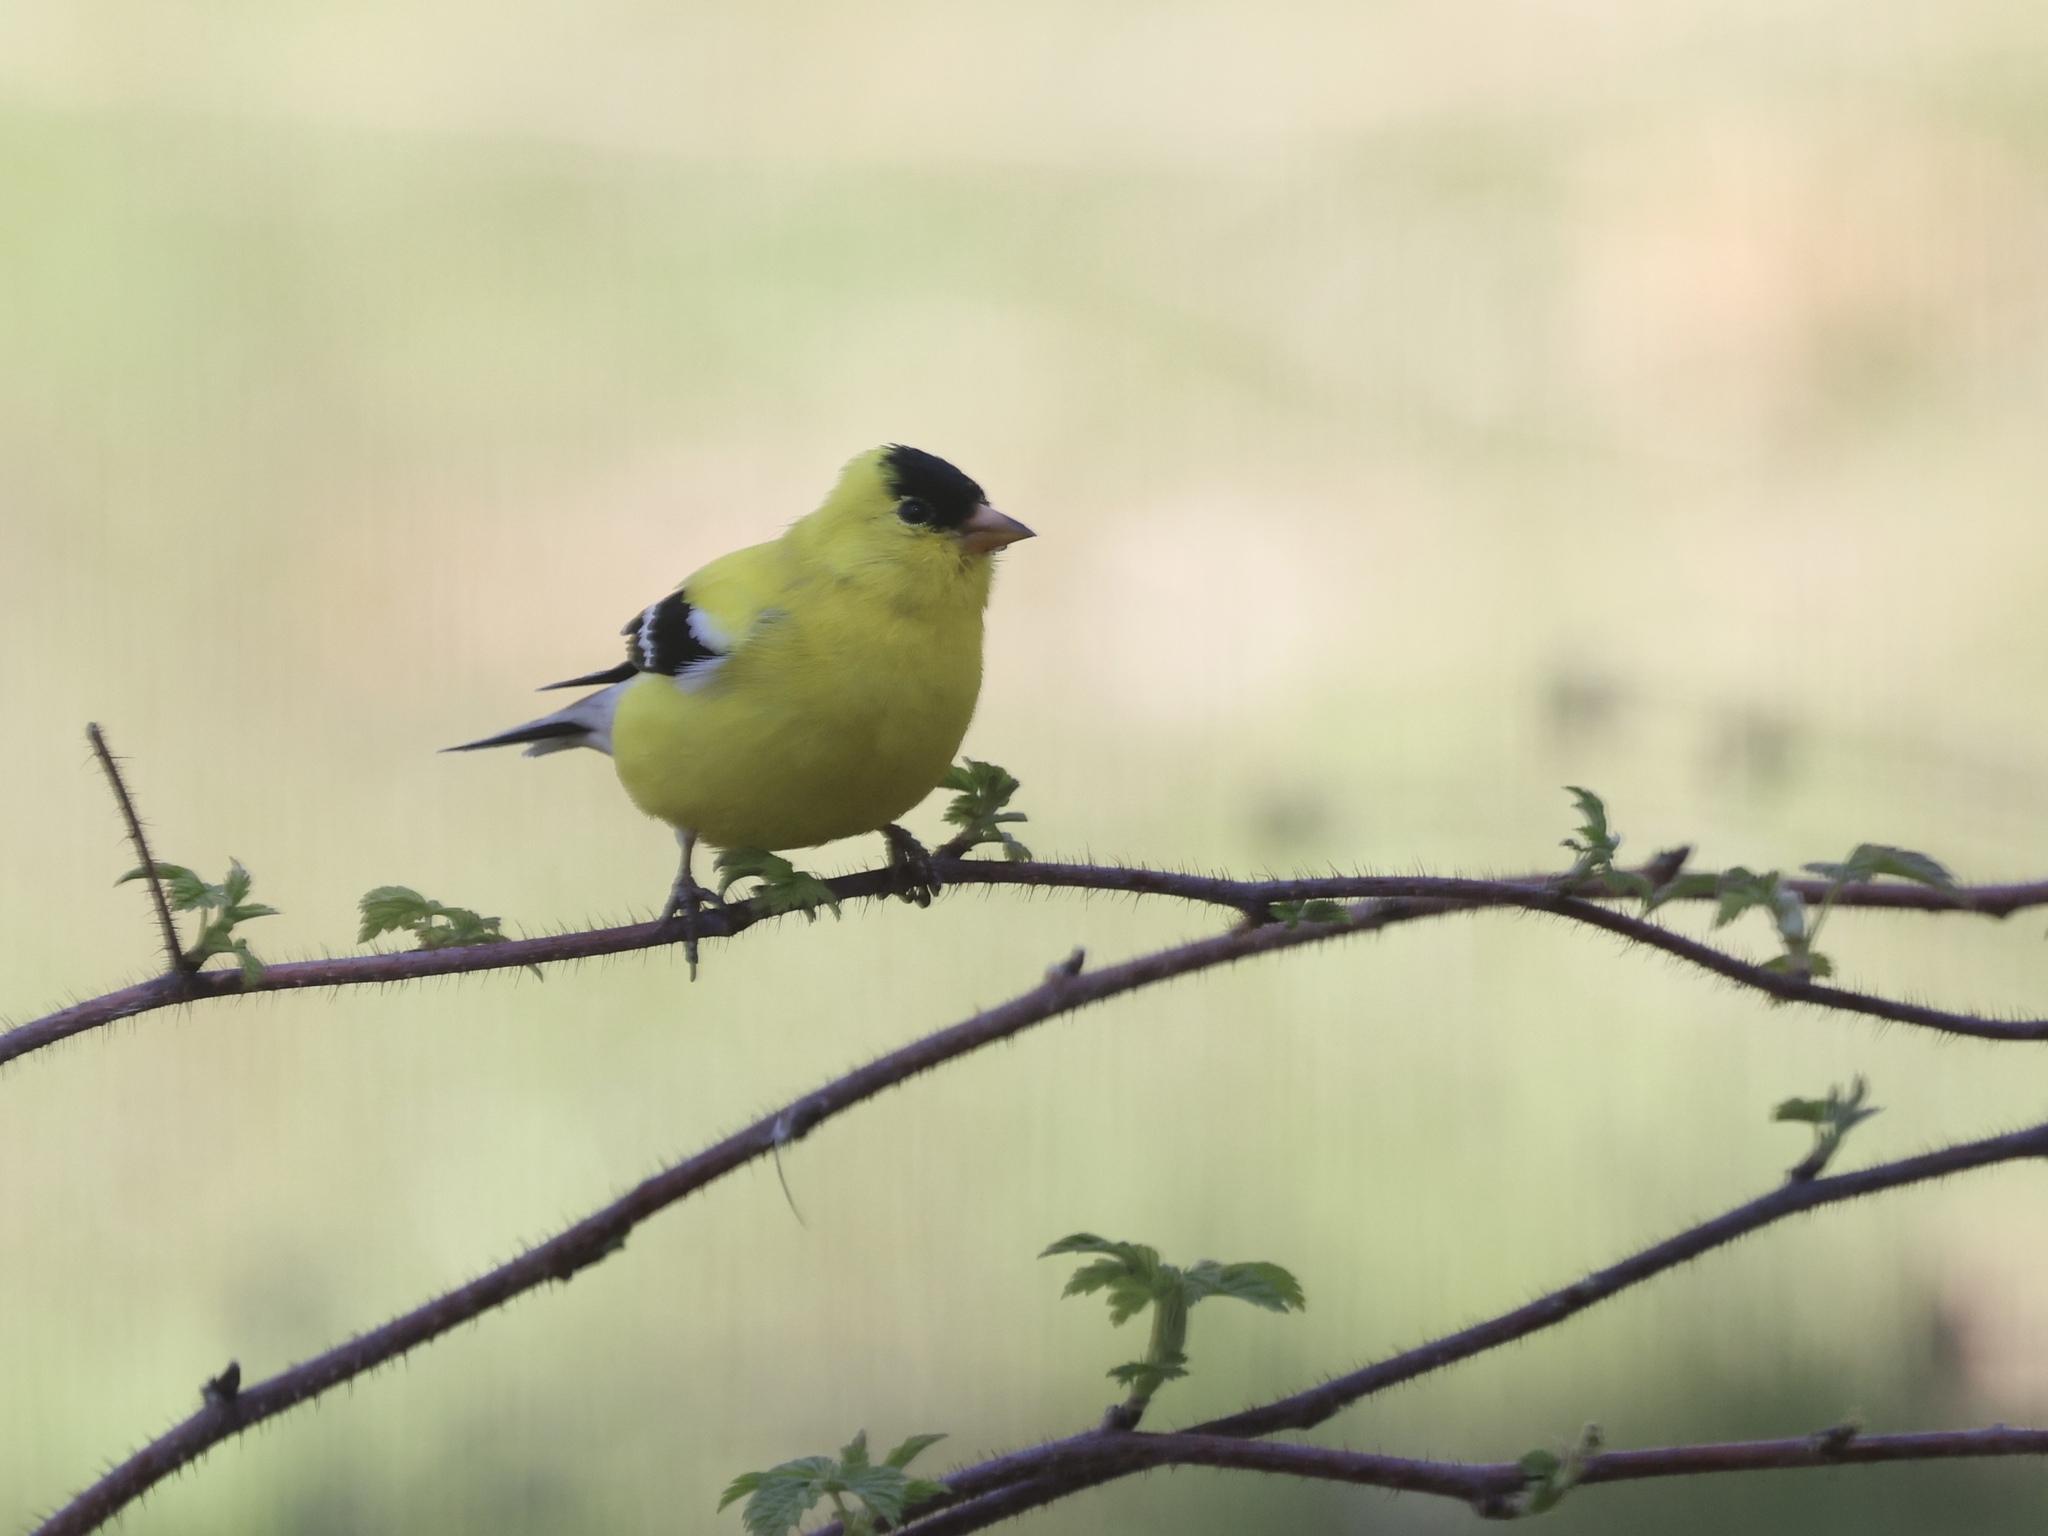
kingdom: Animalia
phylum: Chordata
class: Aves
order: Passeriformes
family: Fringillidae
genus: Spinus
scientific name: Spinus tristis
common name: American goldfinch
